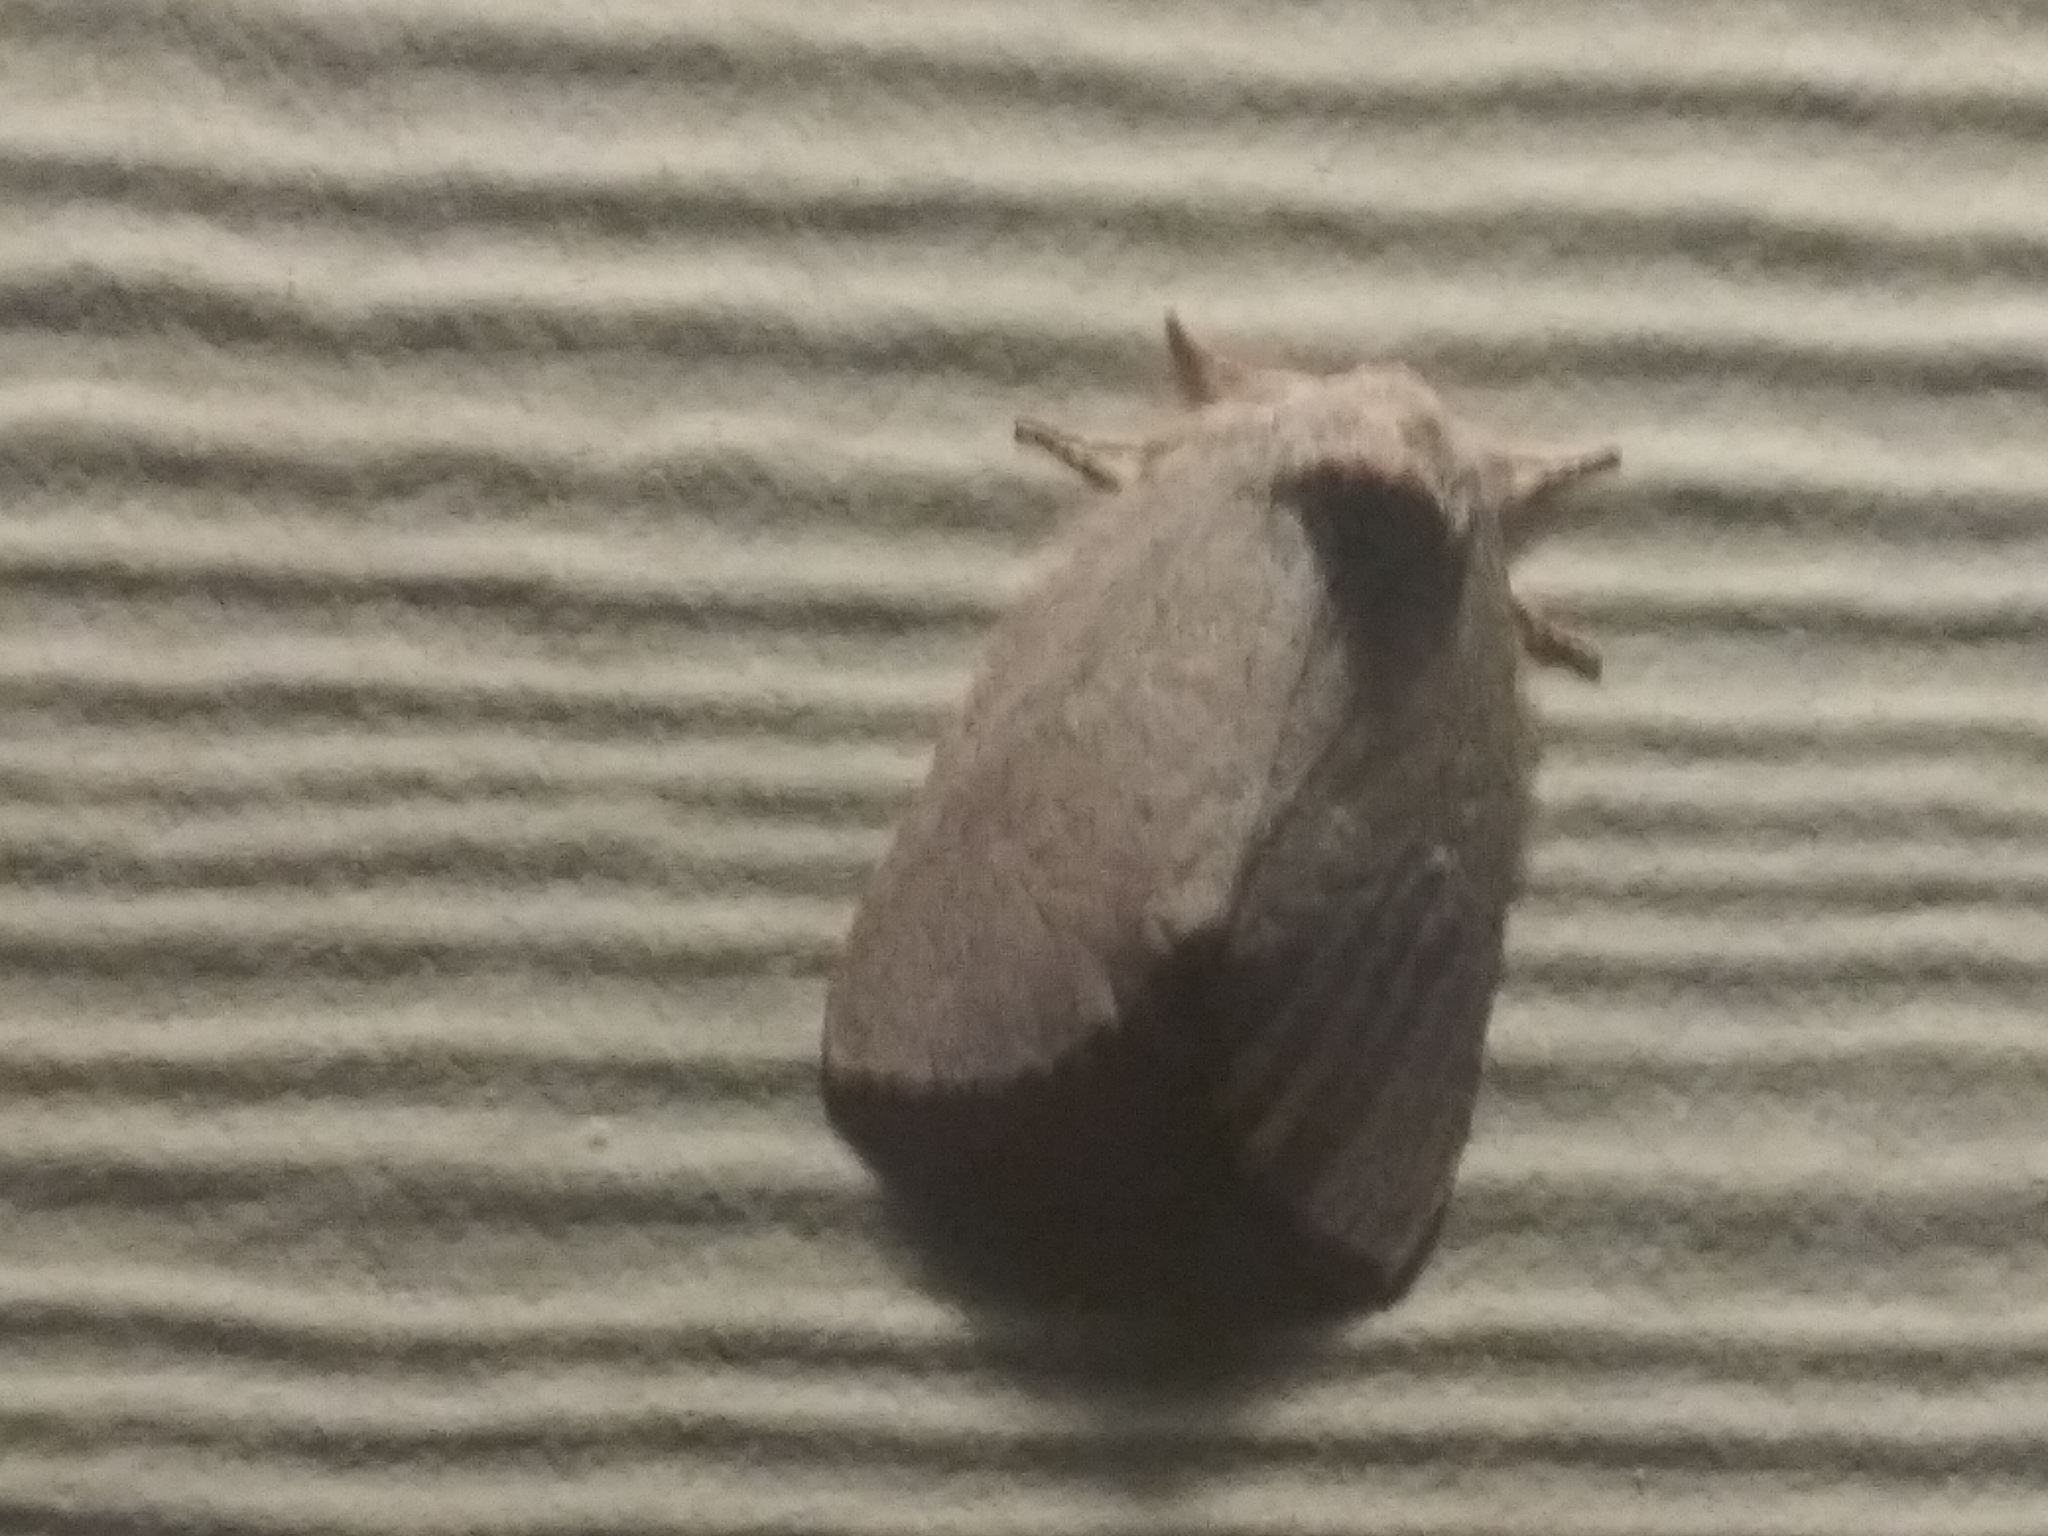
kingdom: Animalia
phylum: Arthropoda
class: Insecta
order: Lepidoptera
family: Notodontidae
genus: Misogada
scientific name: Misogada unicolor
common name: Drab prominent
